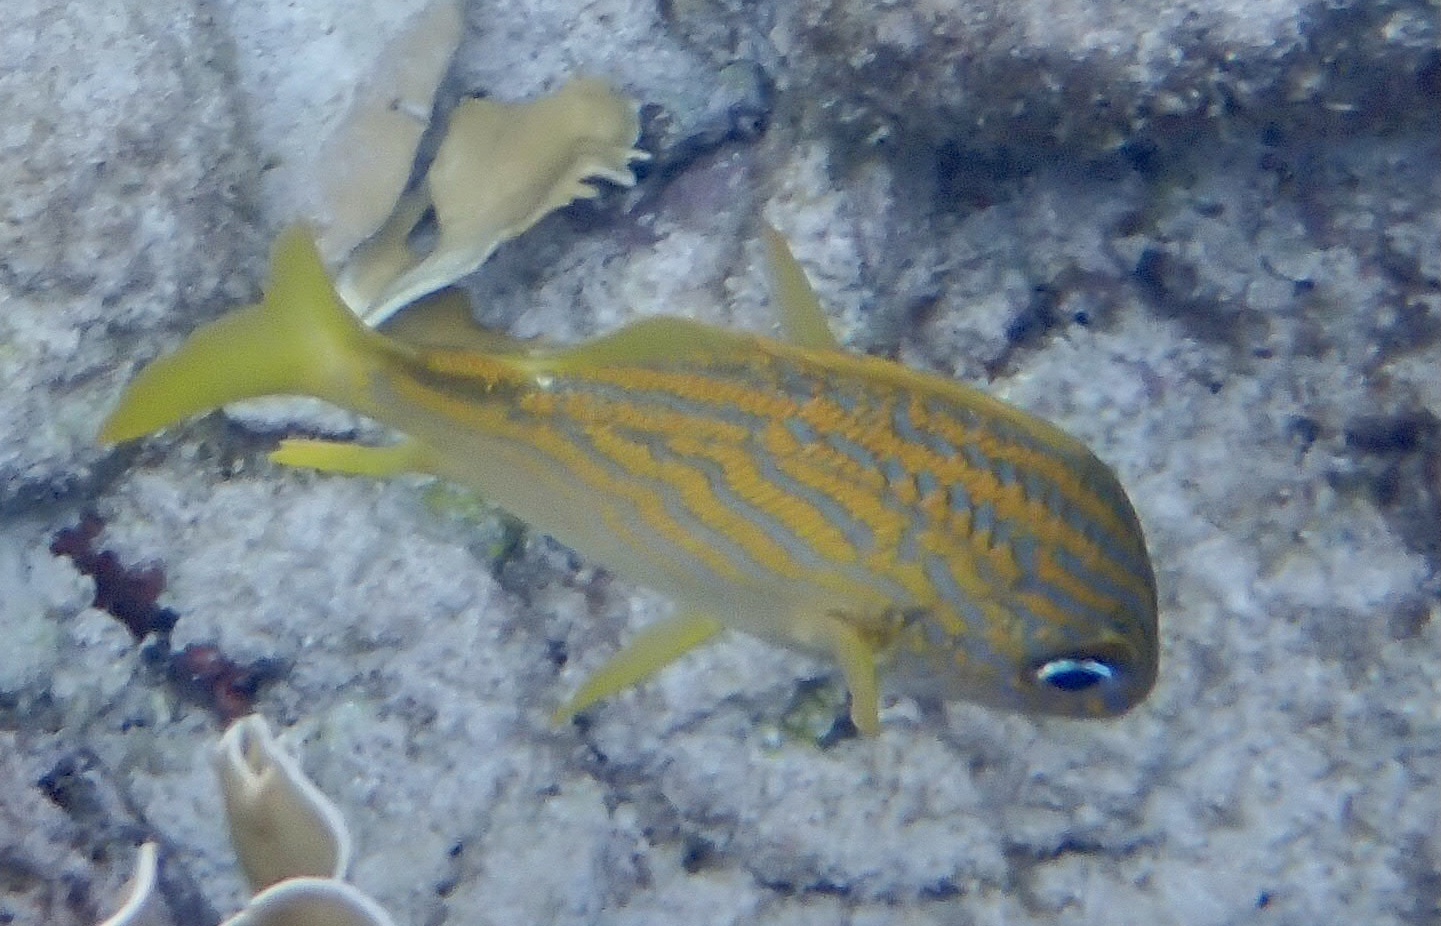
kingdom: Animalia
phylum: Chordata
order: Perciformes
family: Haemulidae
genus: Haemulon
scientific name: Haemulon flavolineatum
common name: French grunt
